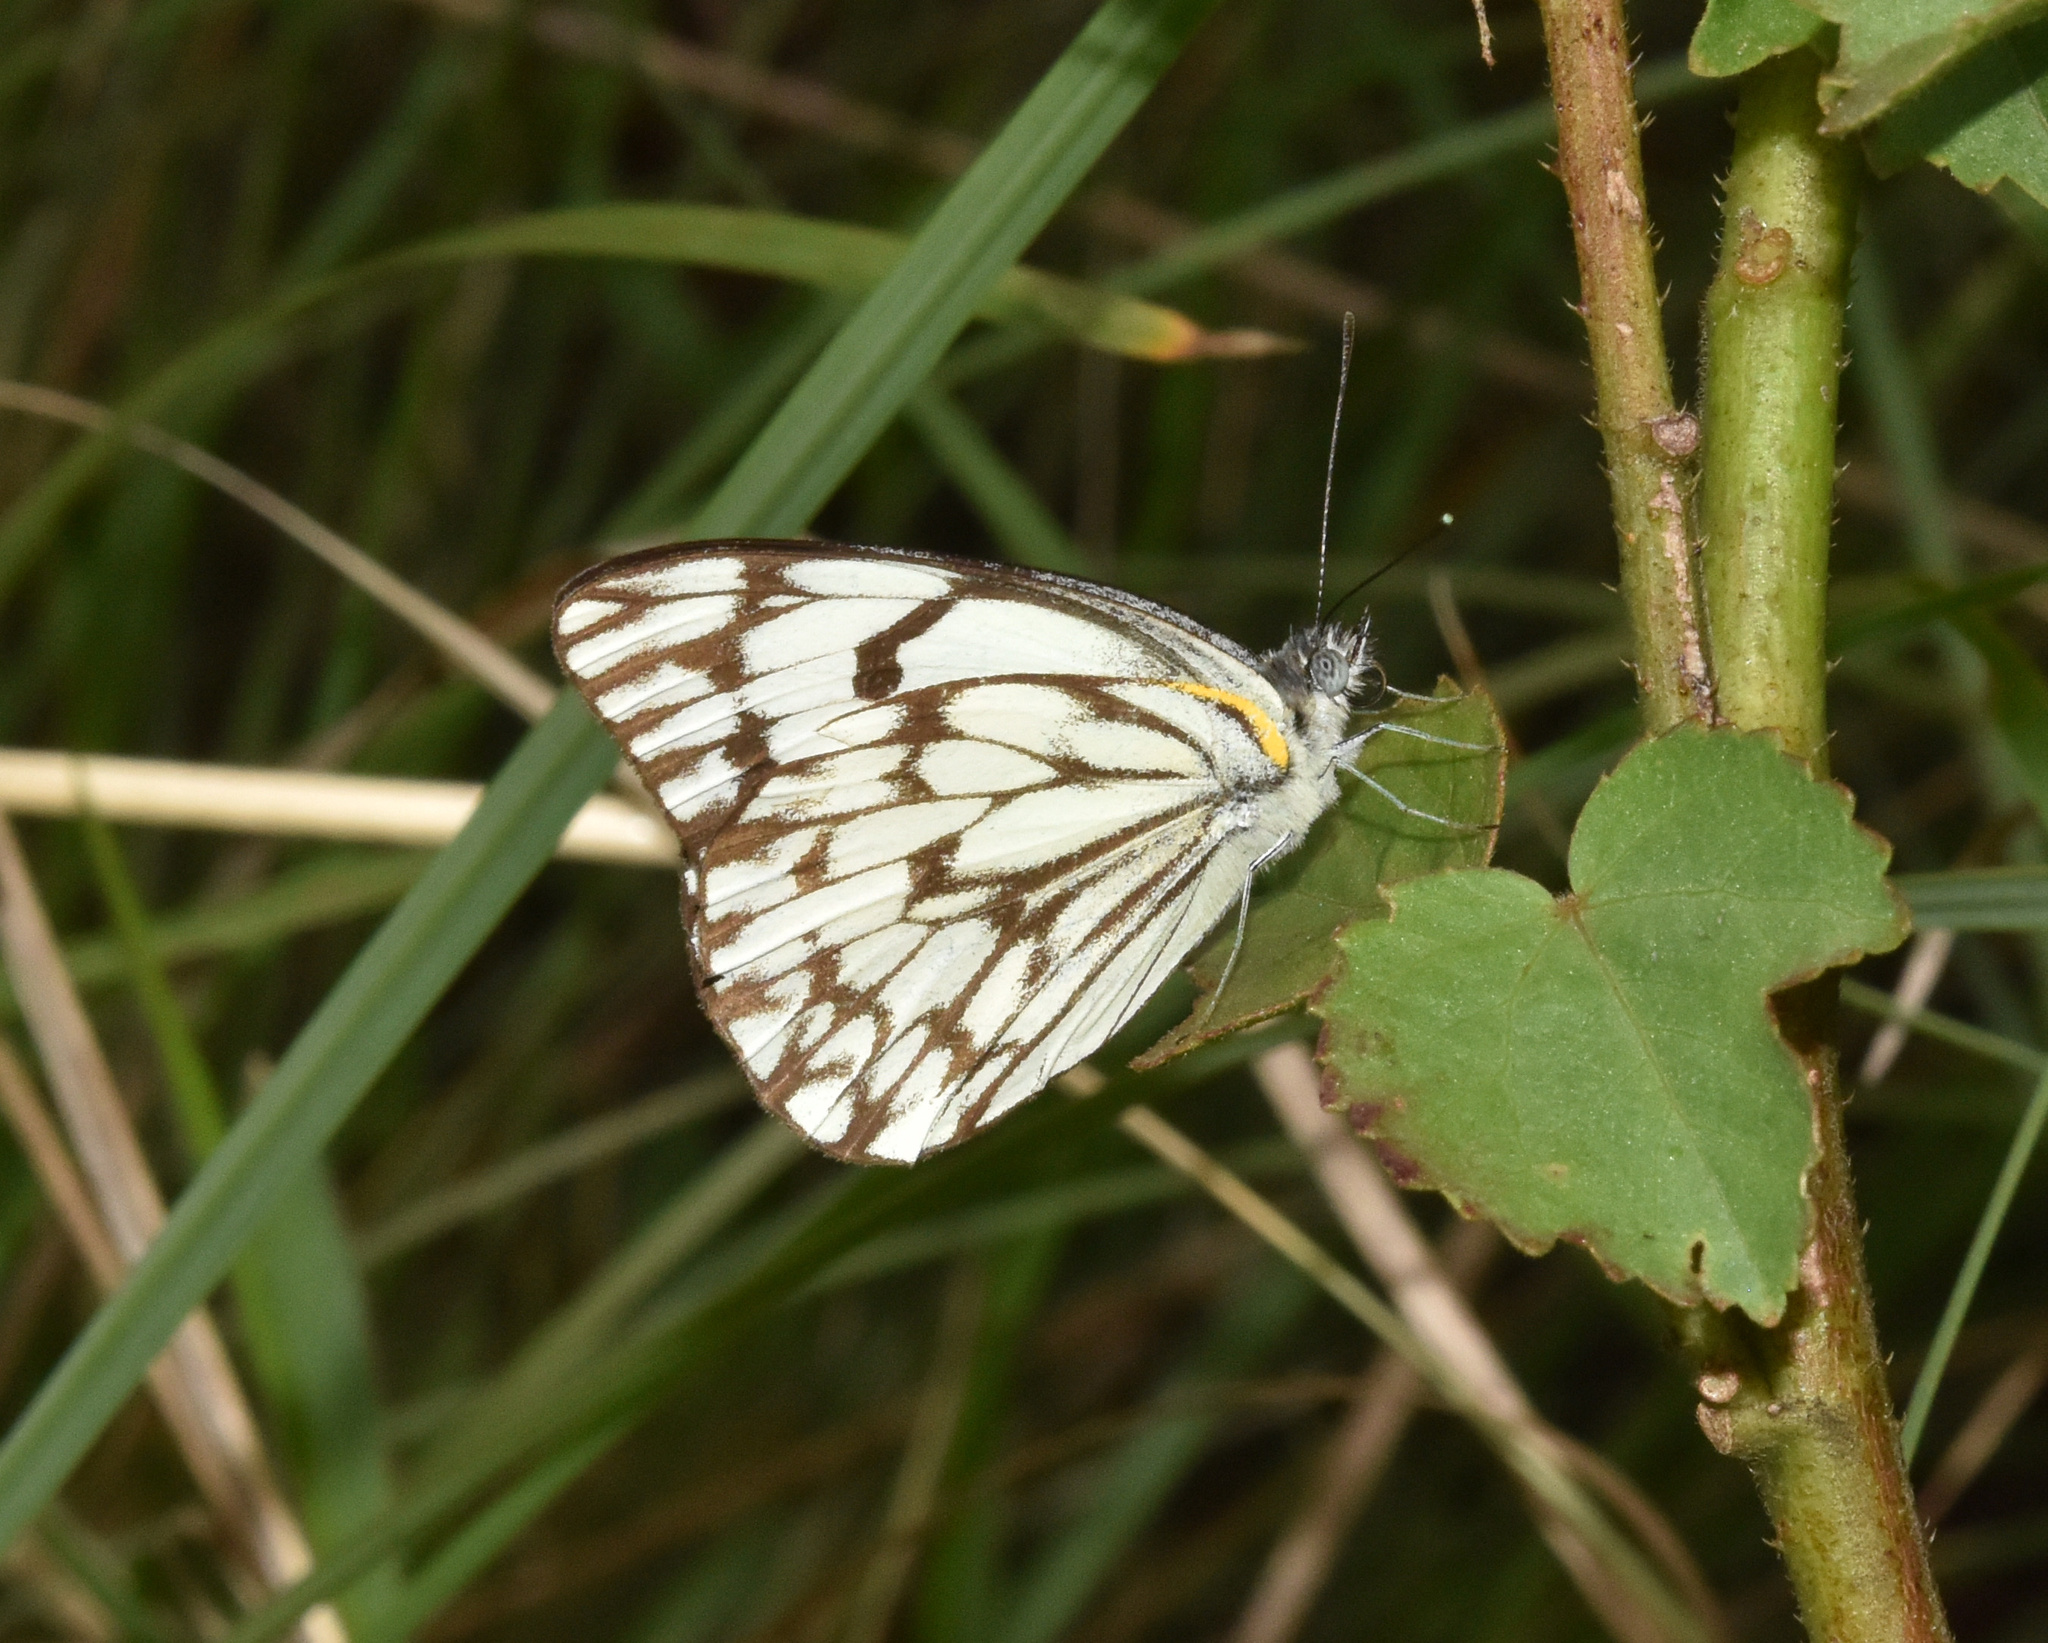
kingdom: Animalia
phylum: Arthropoda
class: Insecta
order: Lepidoptera
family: Pieridae
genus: Belenois
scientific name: Belenois gidica
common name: Pointed caper white
